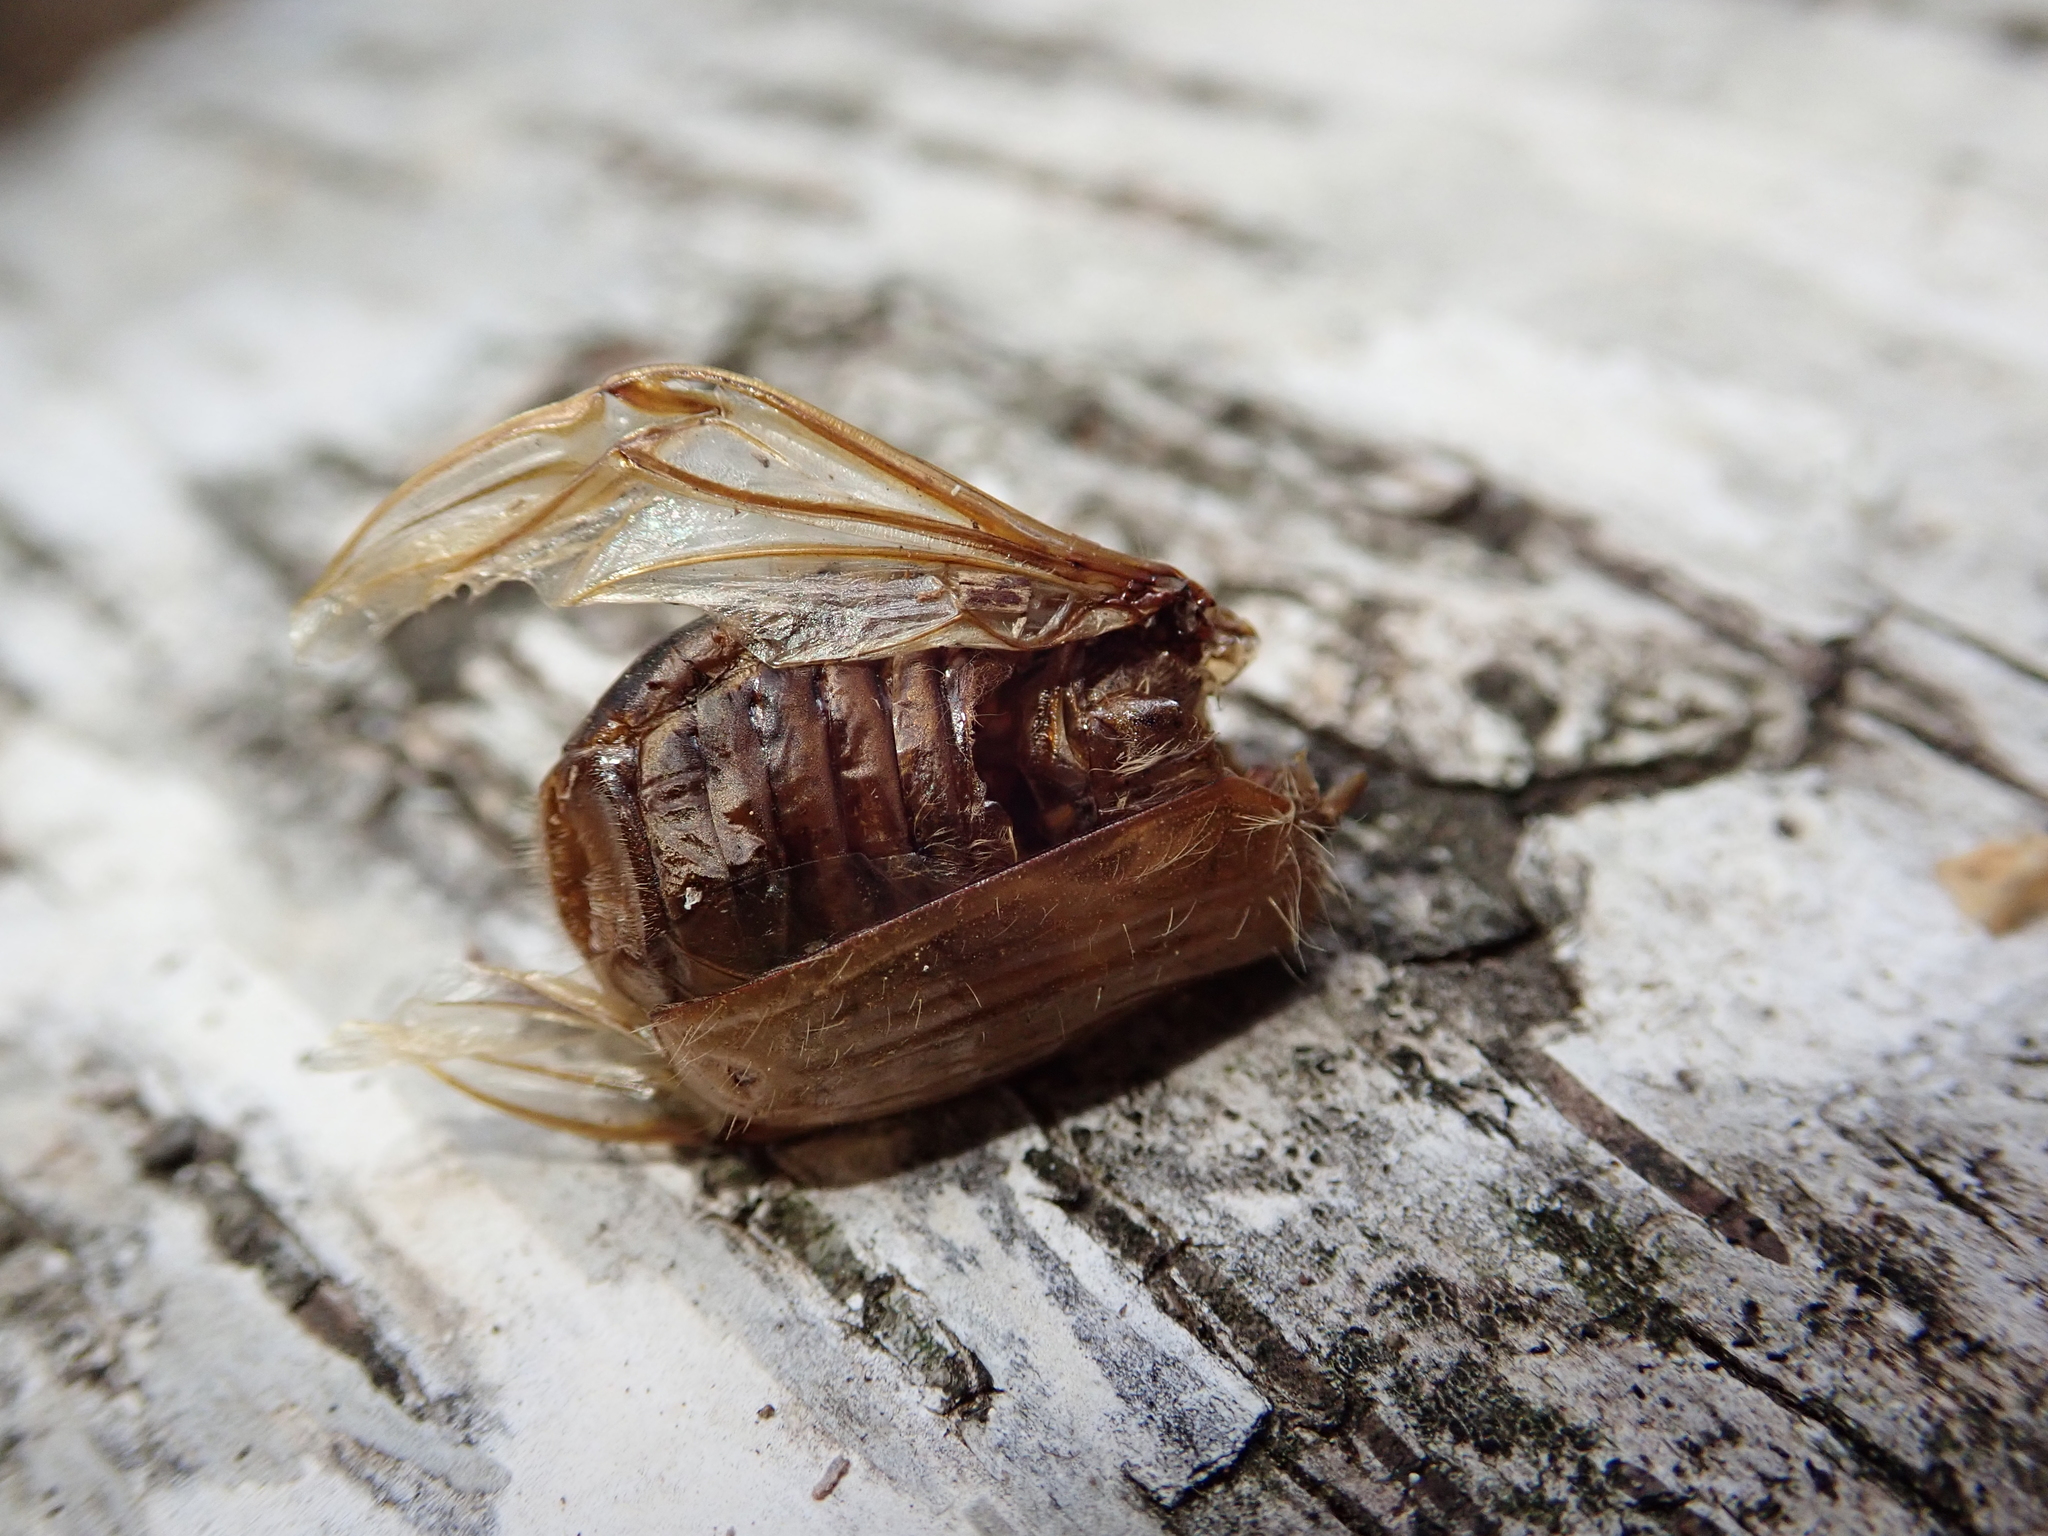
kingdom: Animalia
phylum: Arthropoda
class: Insecta
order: Coleoptera
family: Scarabaeidae
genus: Amphimallon
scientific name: Amphimallon solstitiale
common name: Summer chafer
